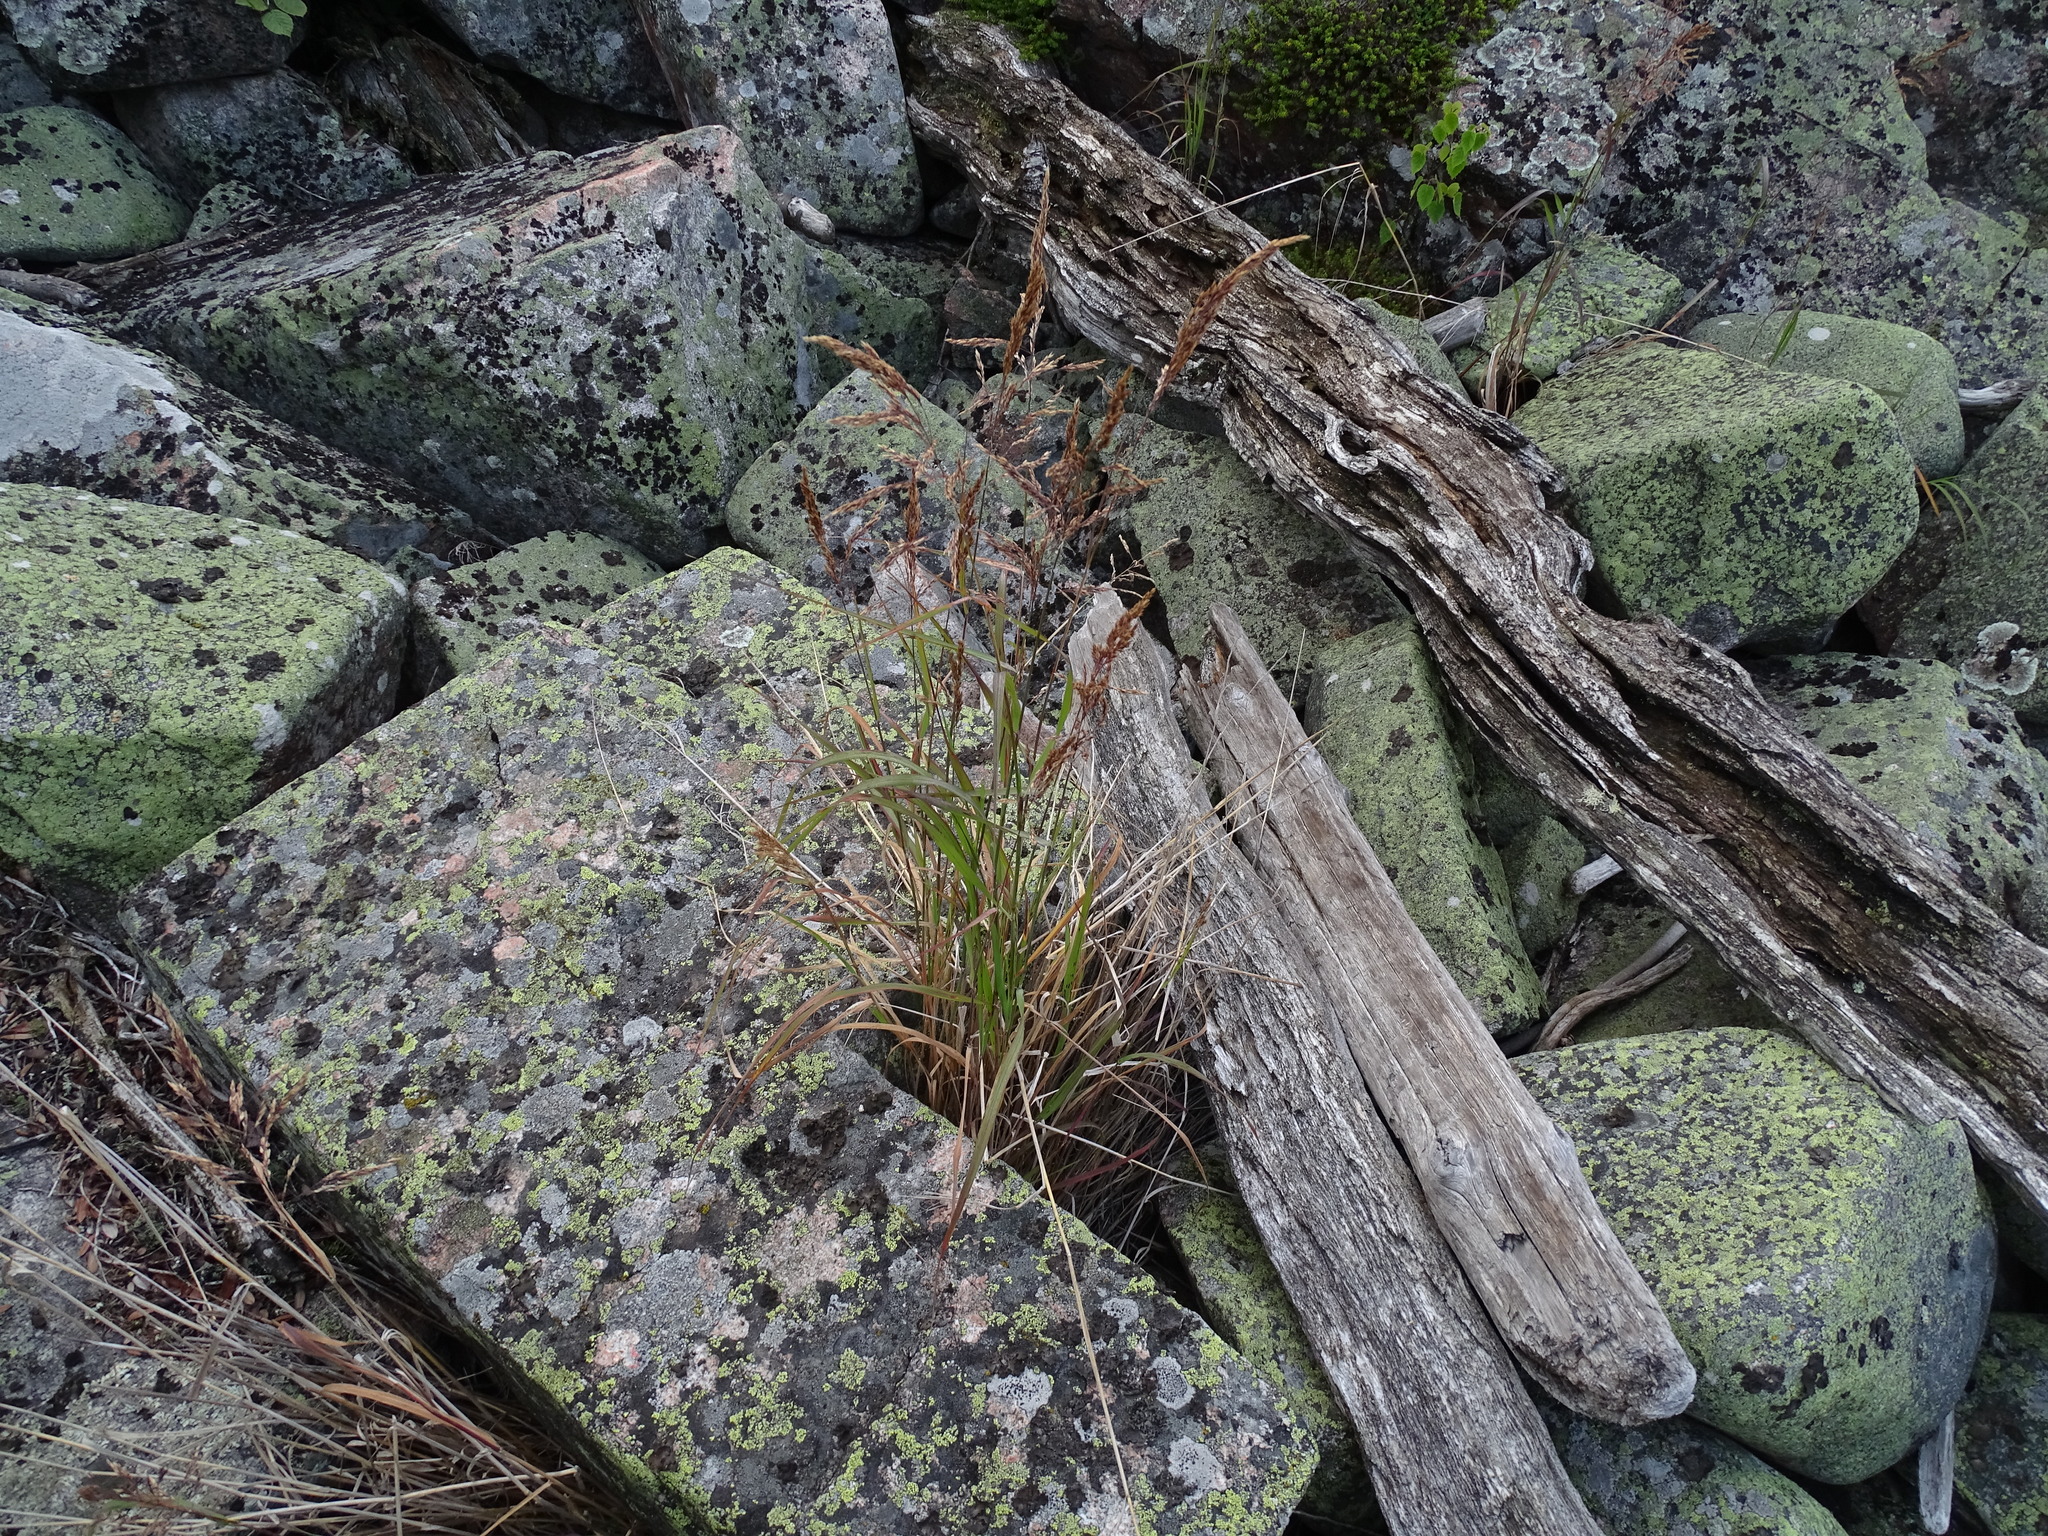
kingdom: Plantae
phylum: Tracheophyta
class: Liliopsida
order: Poales
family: Poaceae
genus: Koeleria
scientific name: Koeleria spicata
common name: Mountain trisetum
